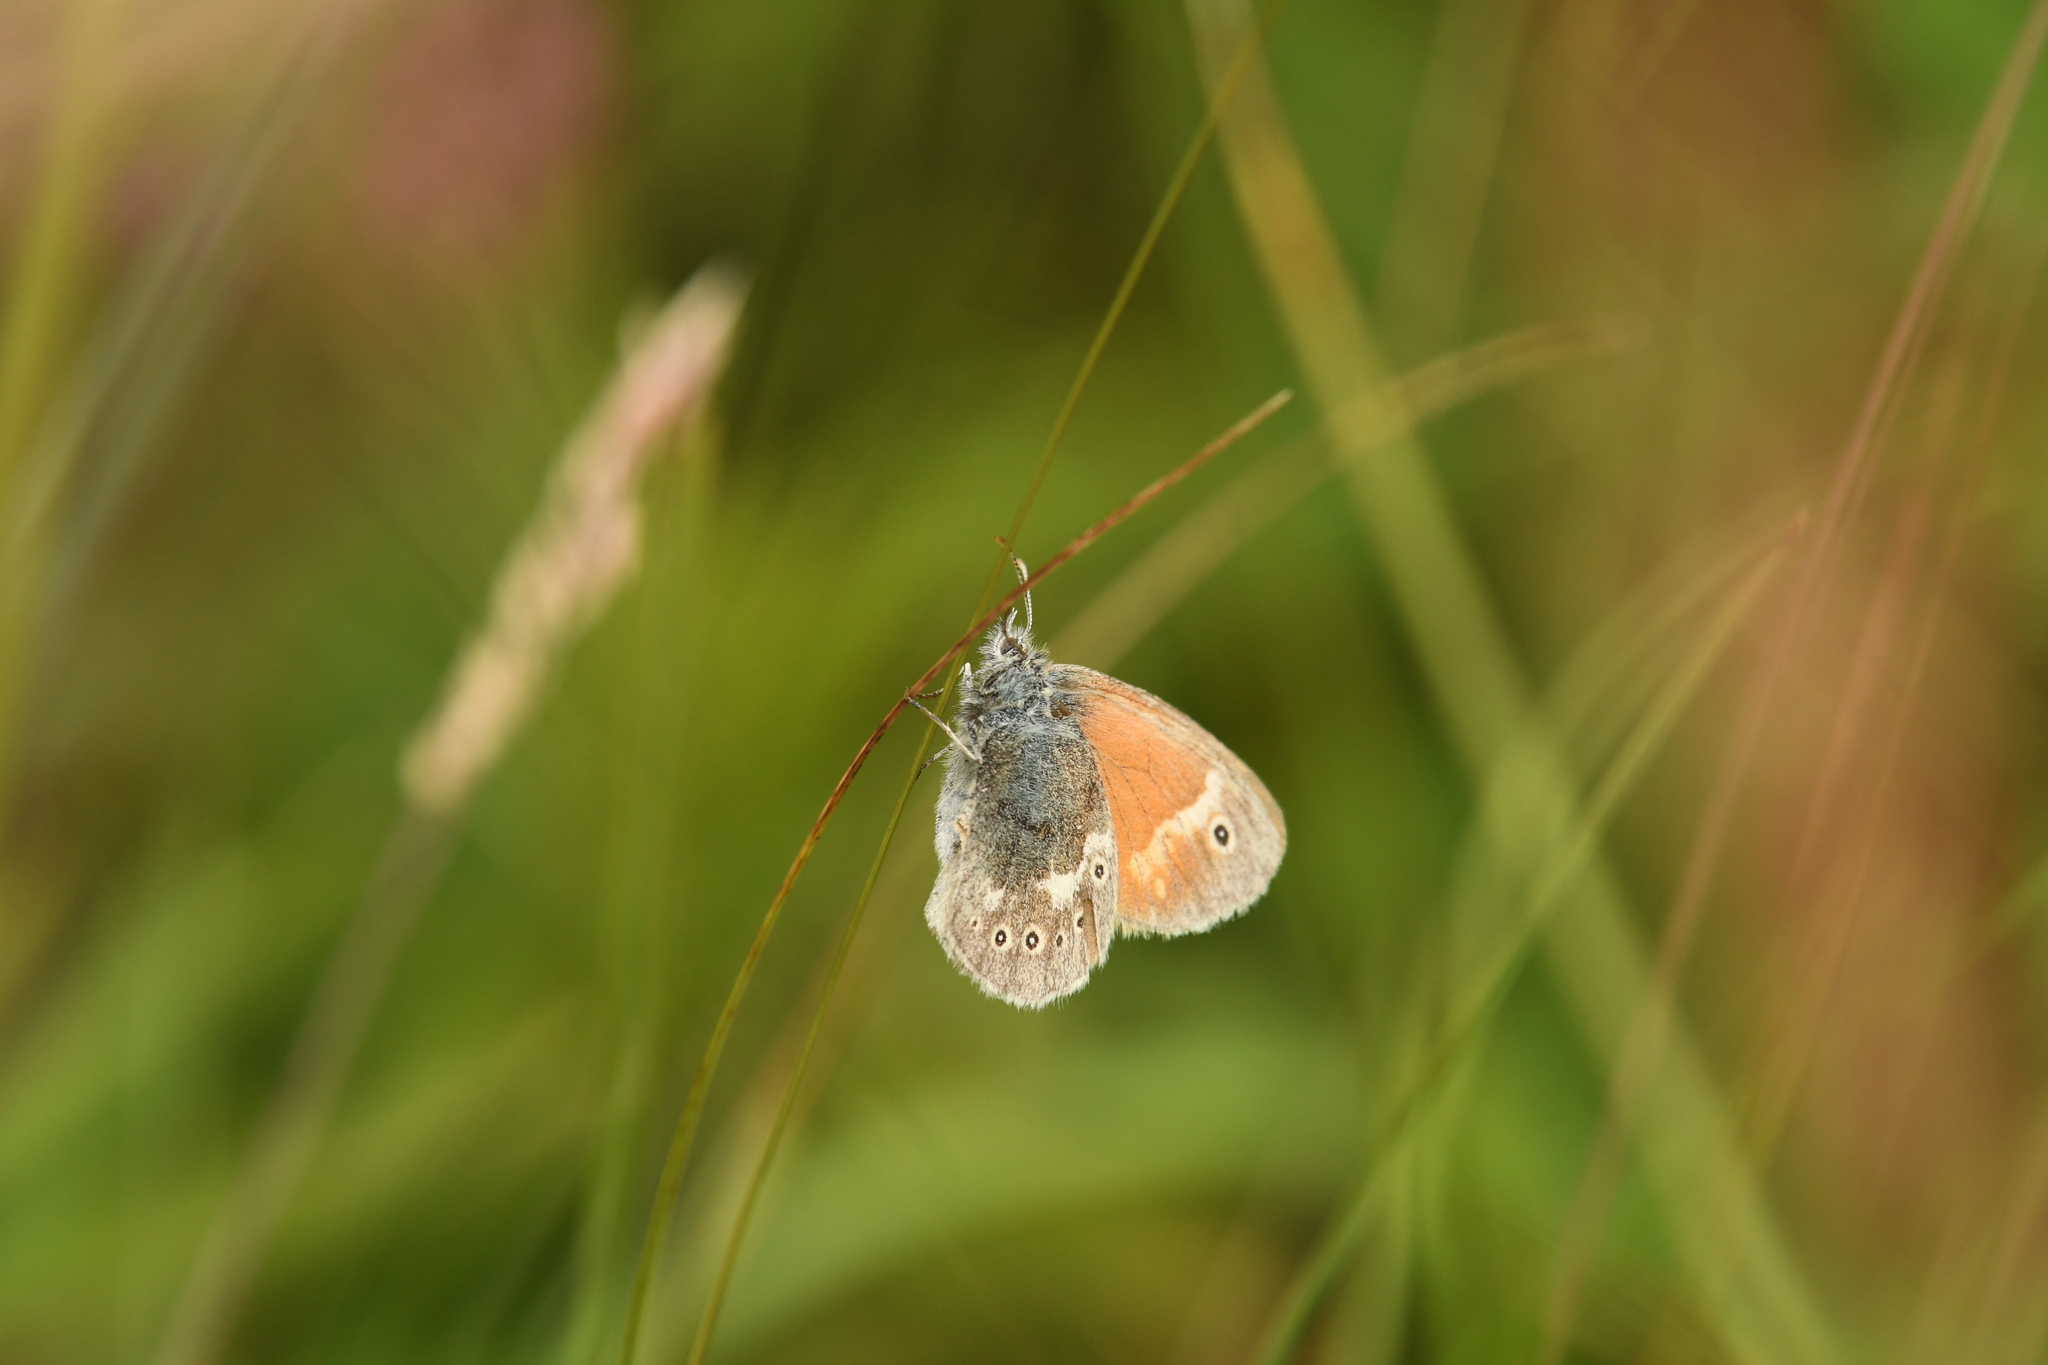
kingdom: Animalia
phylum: Arthropoda
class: Insecta
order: Lepidoptera
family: Nymphalidae
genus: Coenonympha
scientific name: Coenonympha tullia
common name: Large heath
